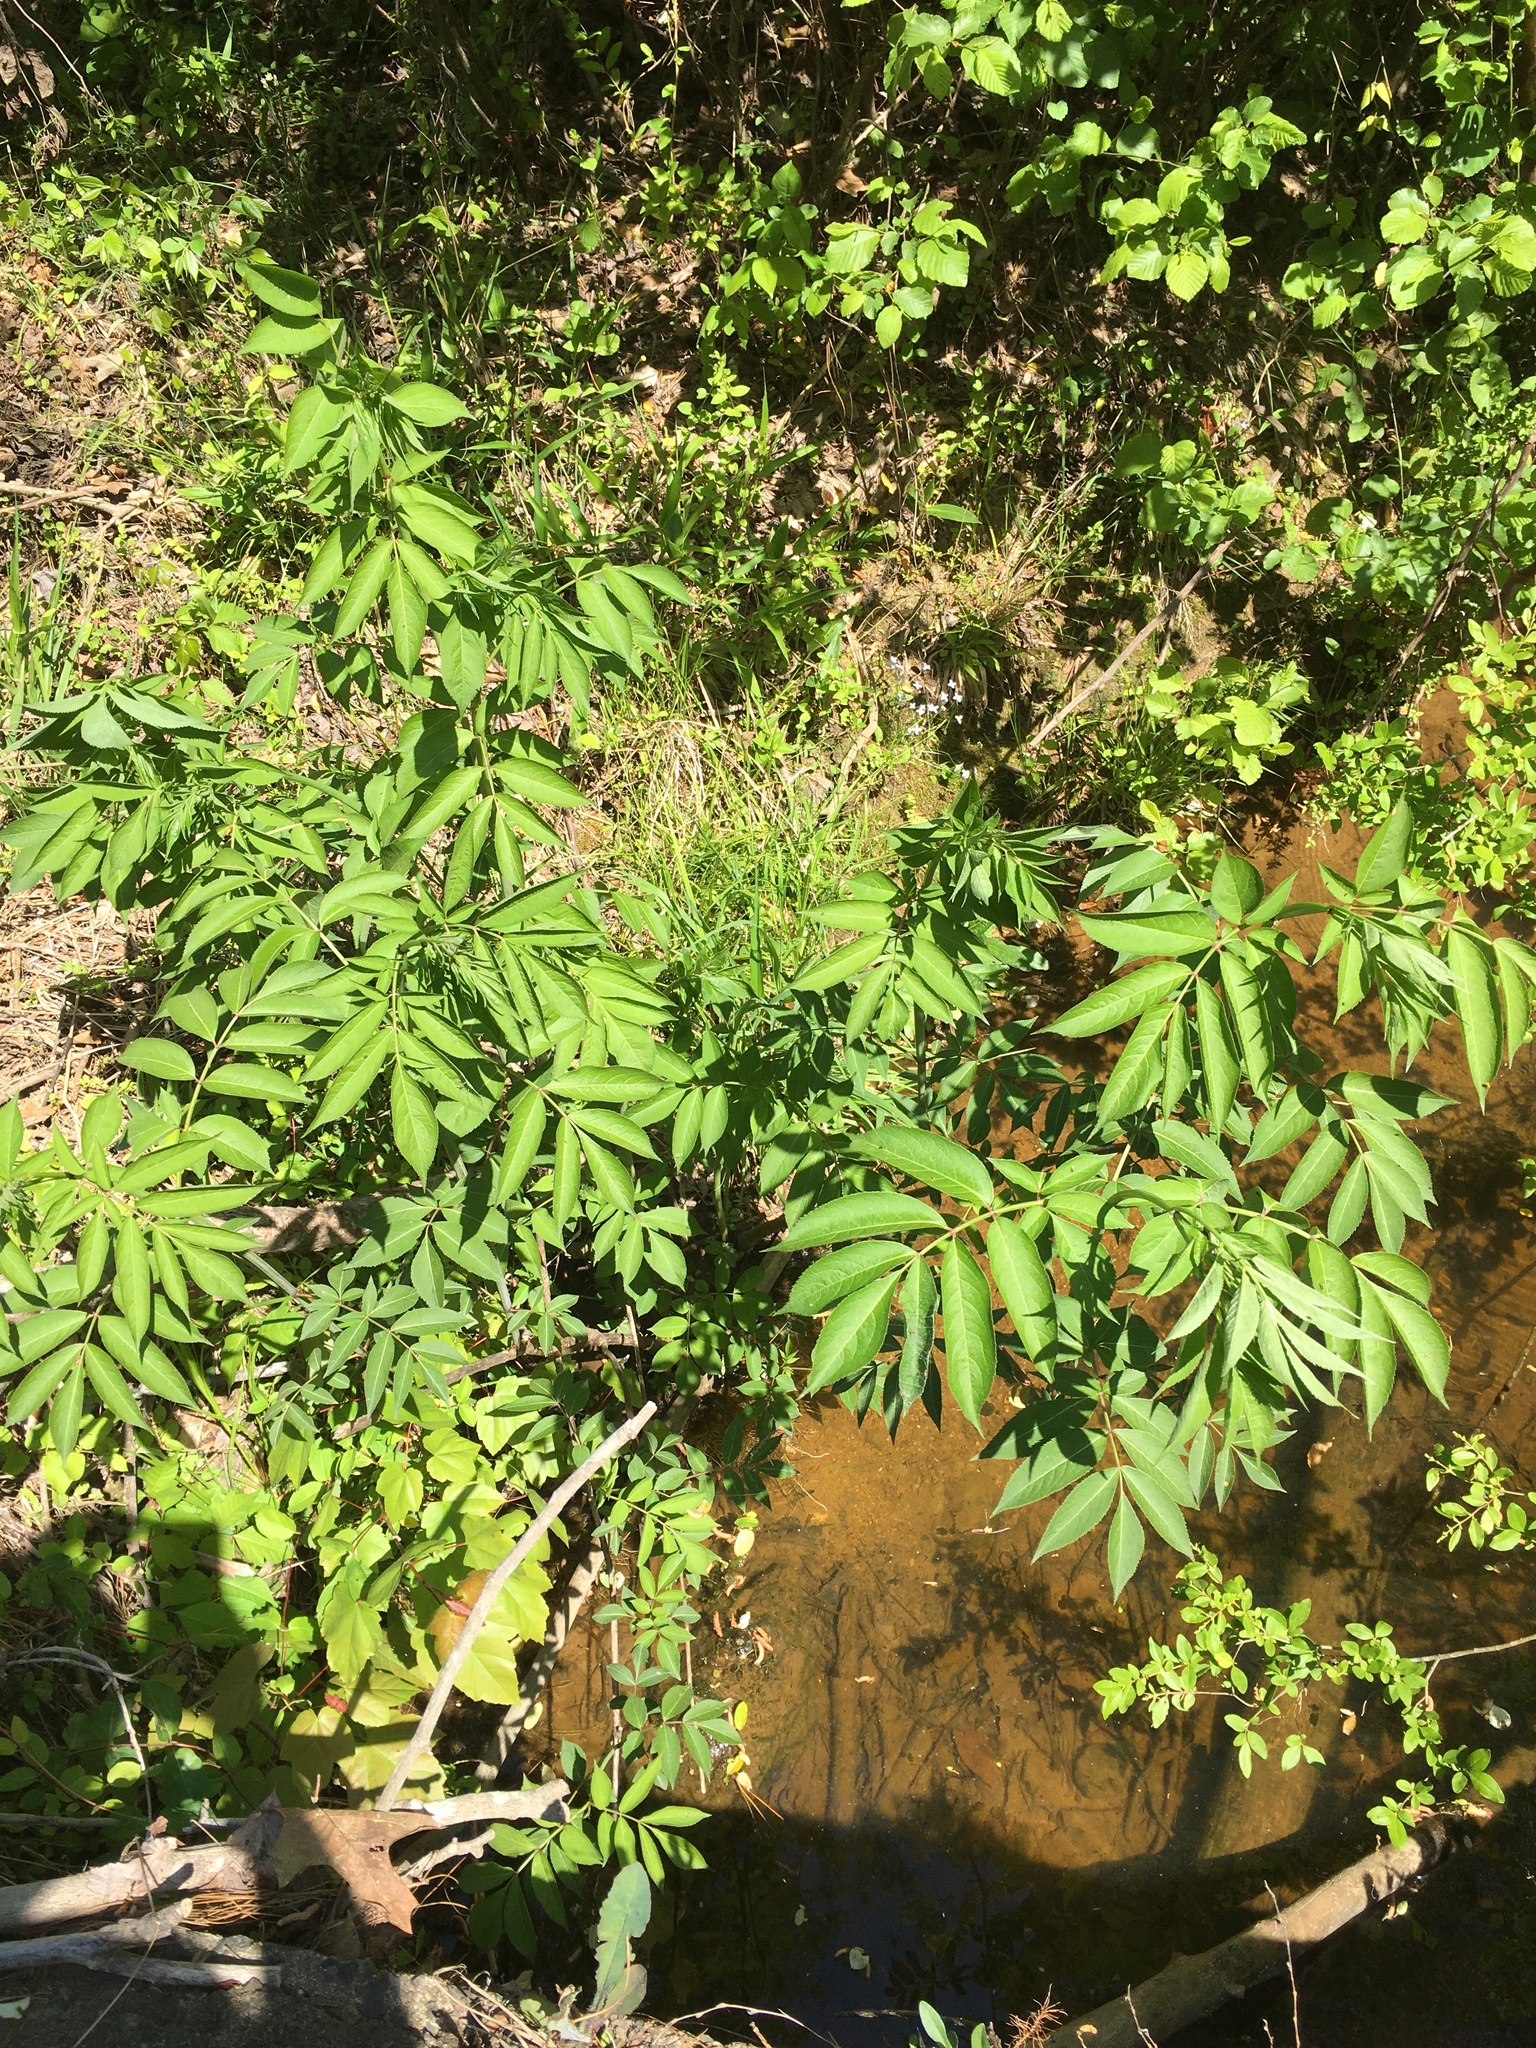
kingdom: Plantae
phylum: Tracheophyta
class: Magnoliopsida
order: Dipsacales
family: Viburnaceae
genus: Sambucus
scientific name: Sambucus canadensis
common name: American elder
